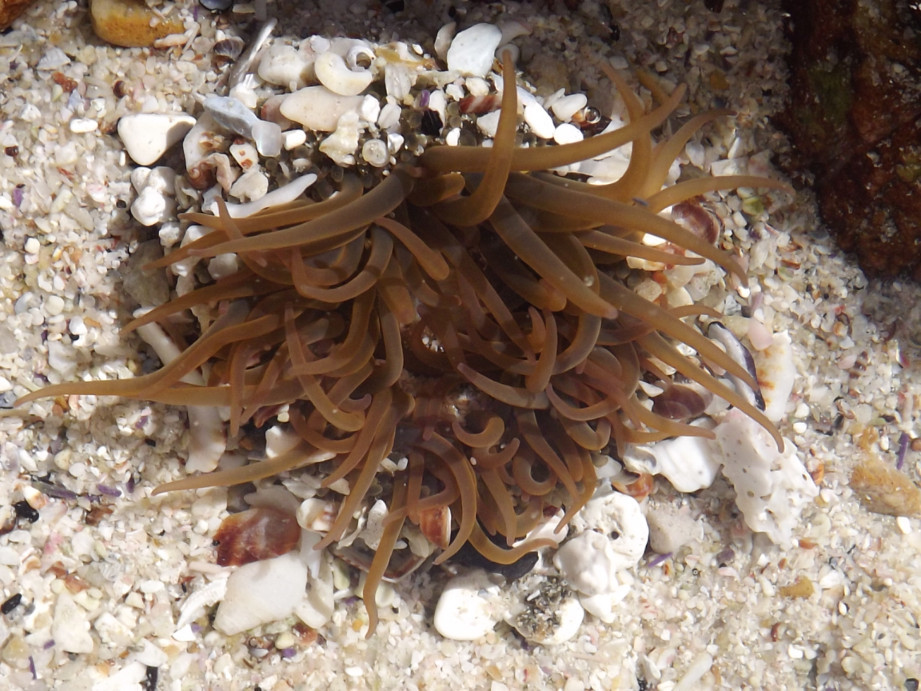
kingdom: Animalia
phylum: Cnidaria
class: Anthozoa
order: Actiniaria
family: Actiniidae
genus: Anthopleura
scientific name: Anthopleura michaelseni
